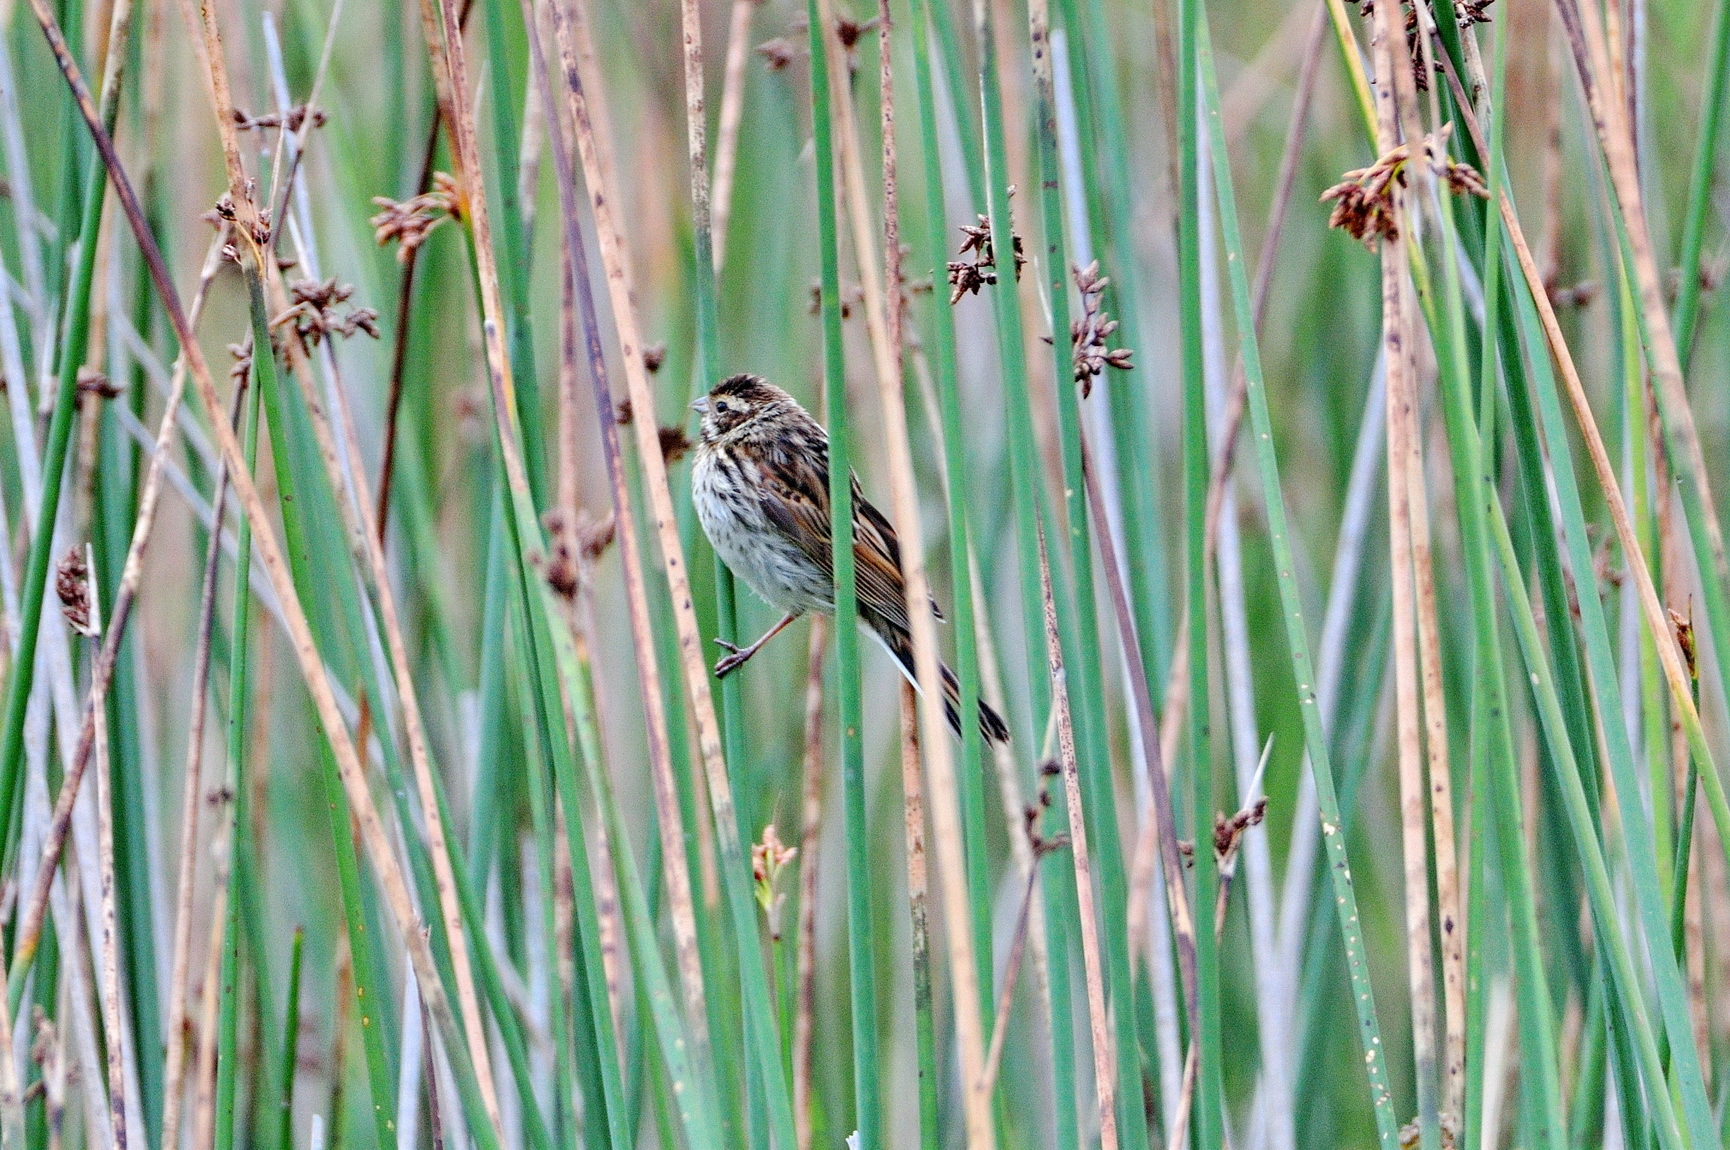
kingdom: Animalia
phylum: Chordata
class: Aves
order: Passeriformes
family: Emberizidae
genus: Emberiza
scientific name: Emberiza schoeniclus
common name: Reed bunting
